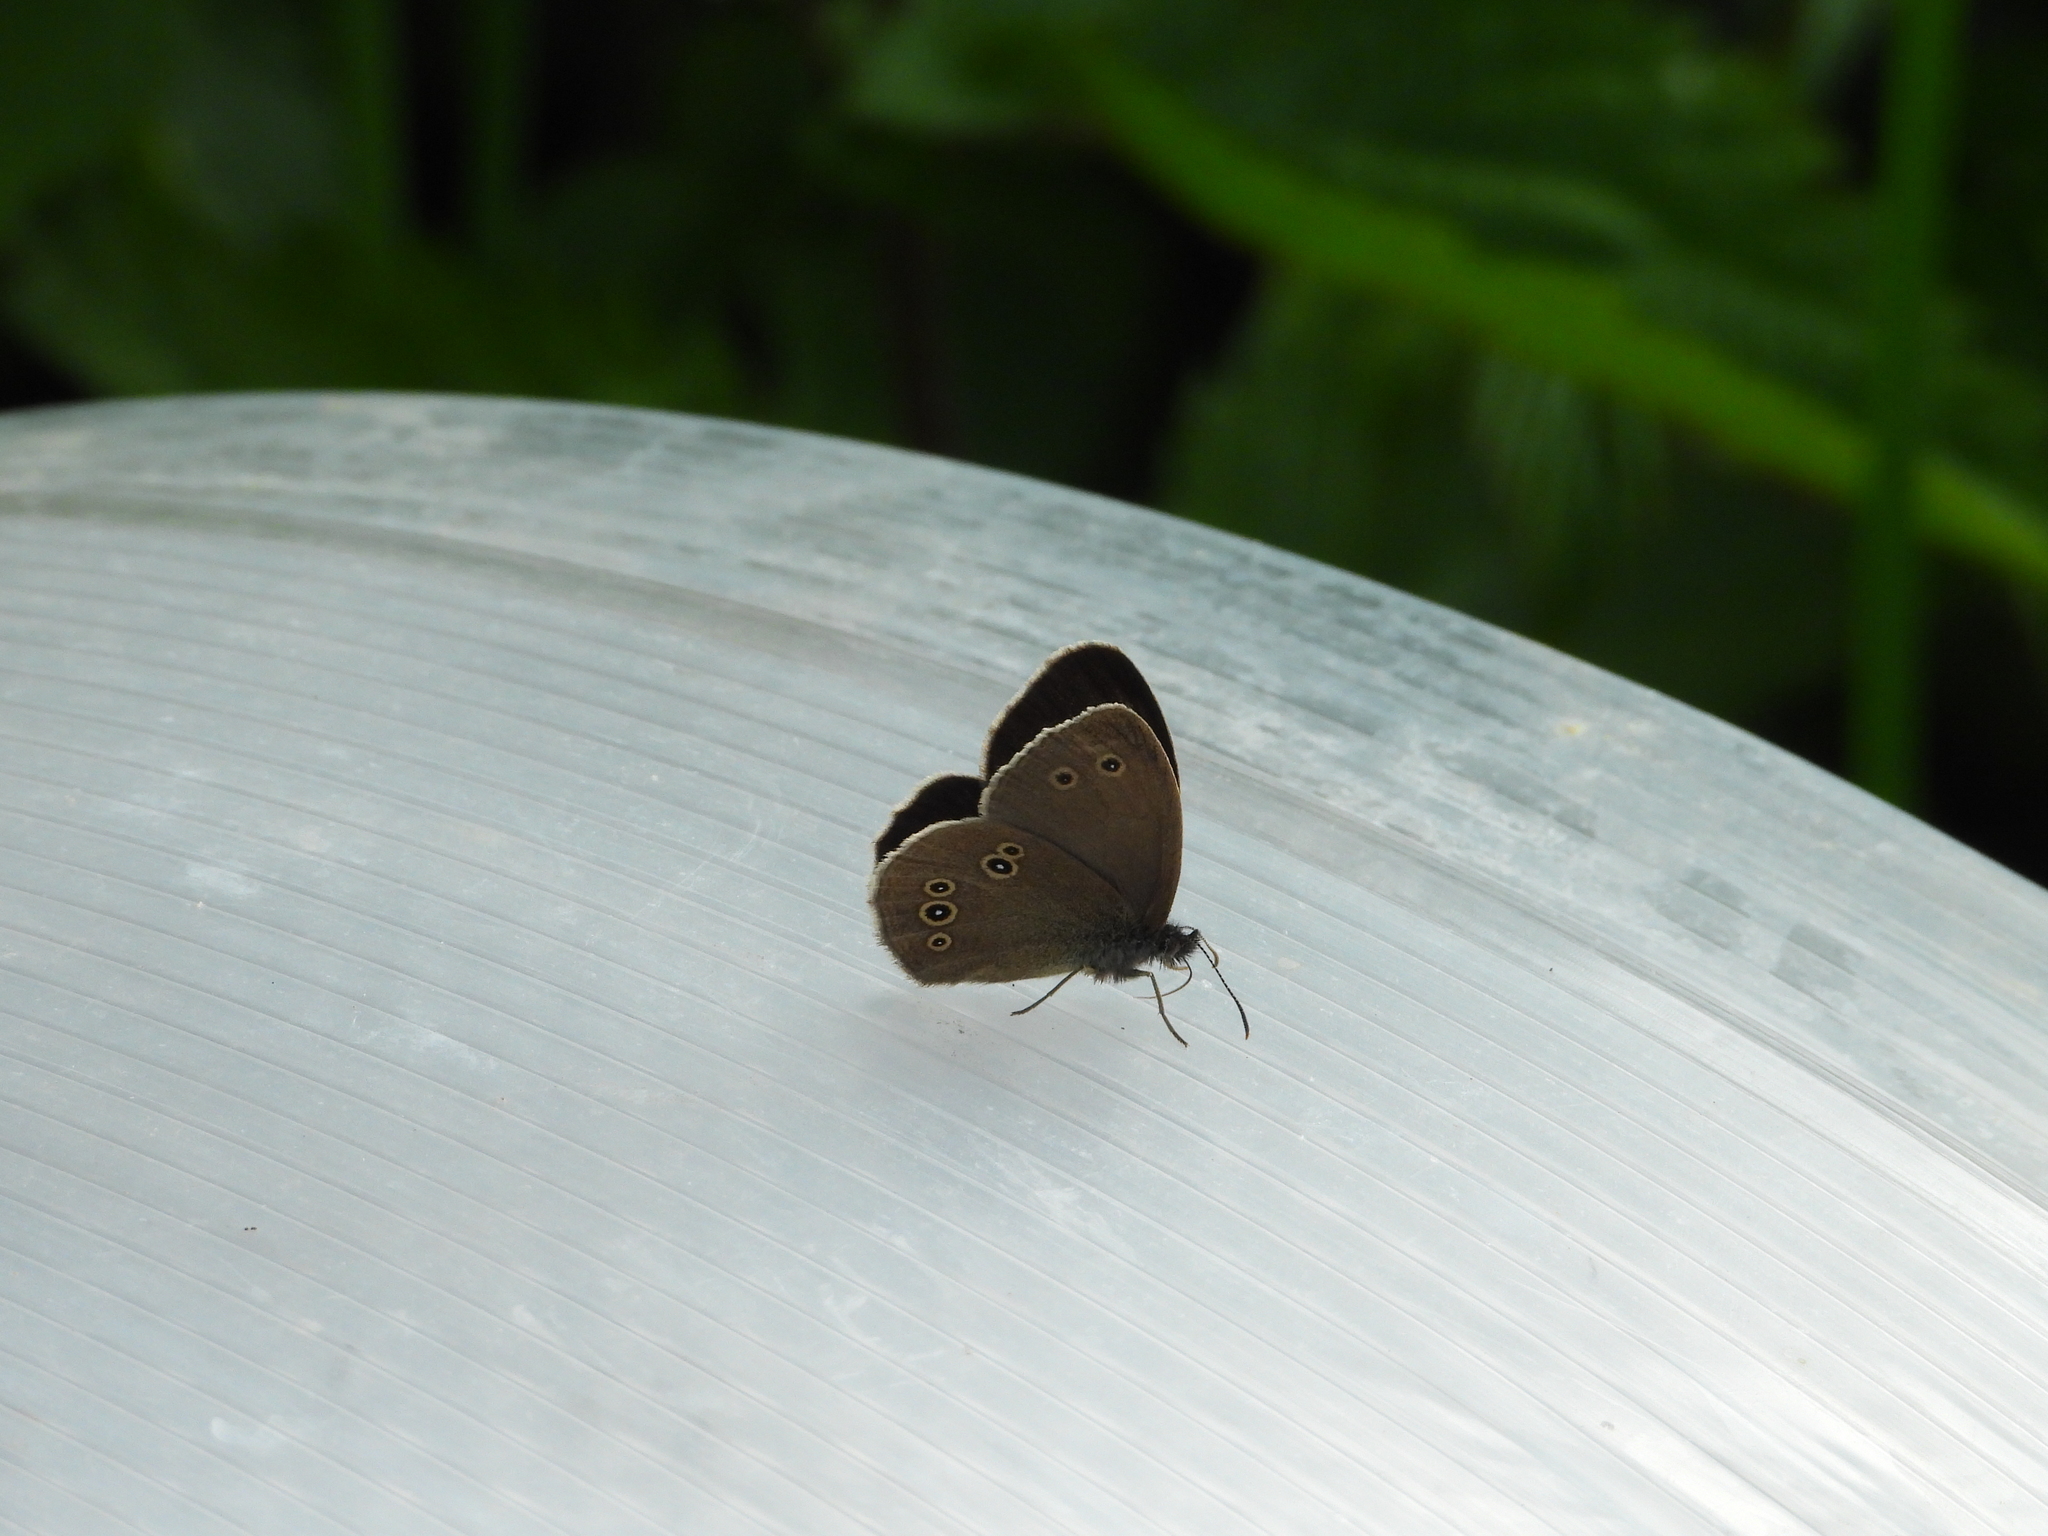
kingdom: Animalia
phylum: Arthropoda
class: Insecta
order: Lepidoptera
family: Nymphalidae
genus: Aphantopus
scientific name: Aphantopus hyperantus
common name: Ringlet
